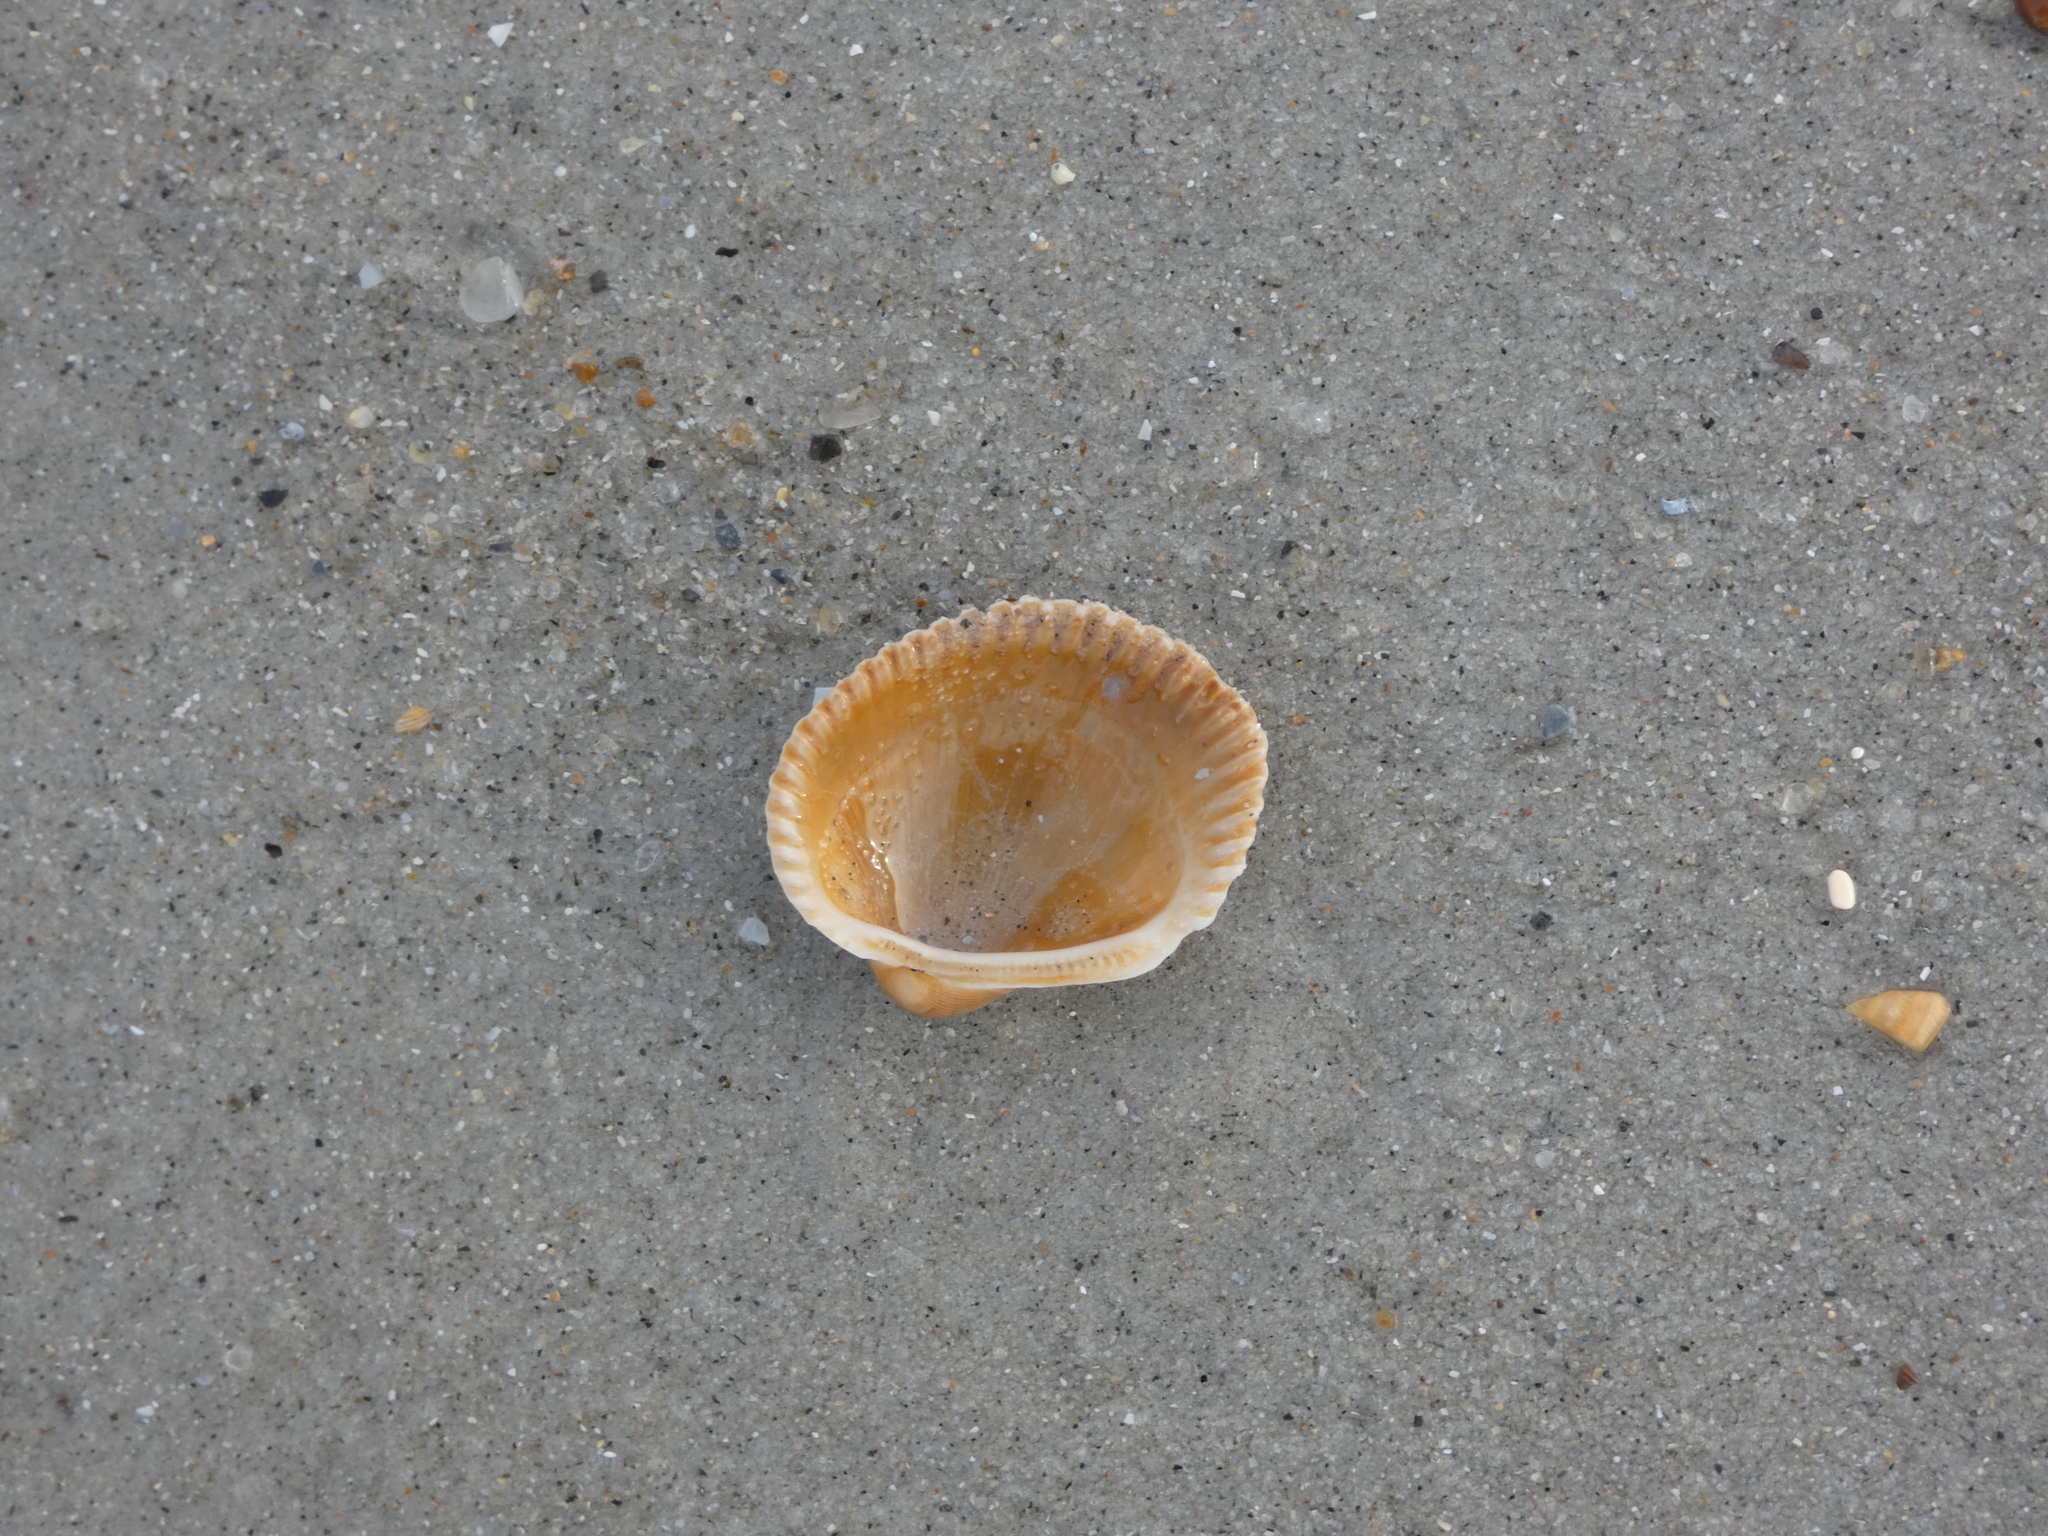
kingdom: Animalia
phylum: Mollusca
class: Bivalvia
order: Arcida
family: Arcidae
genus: Lunarca
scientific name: Lunarca ovalis
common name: Blood ark
